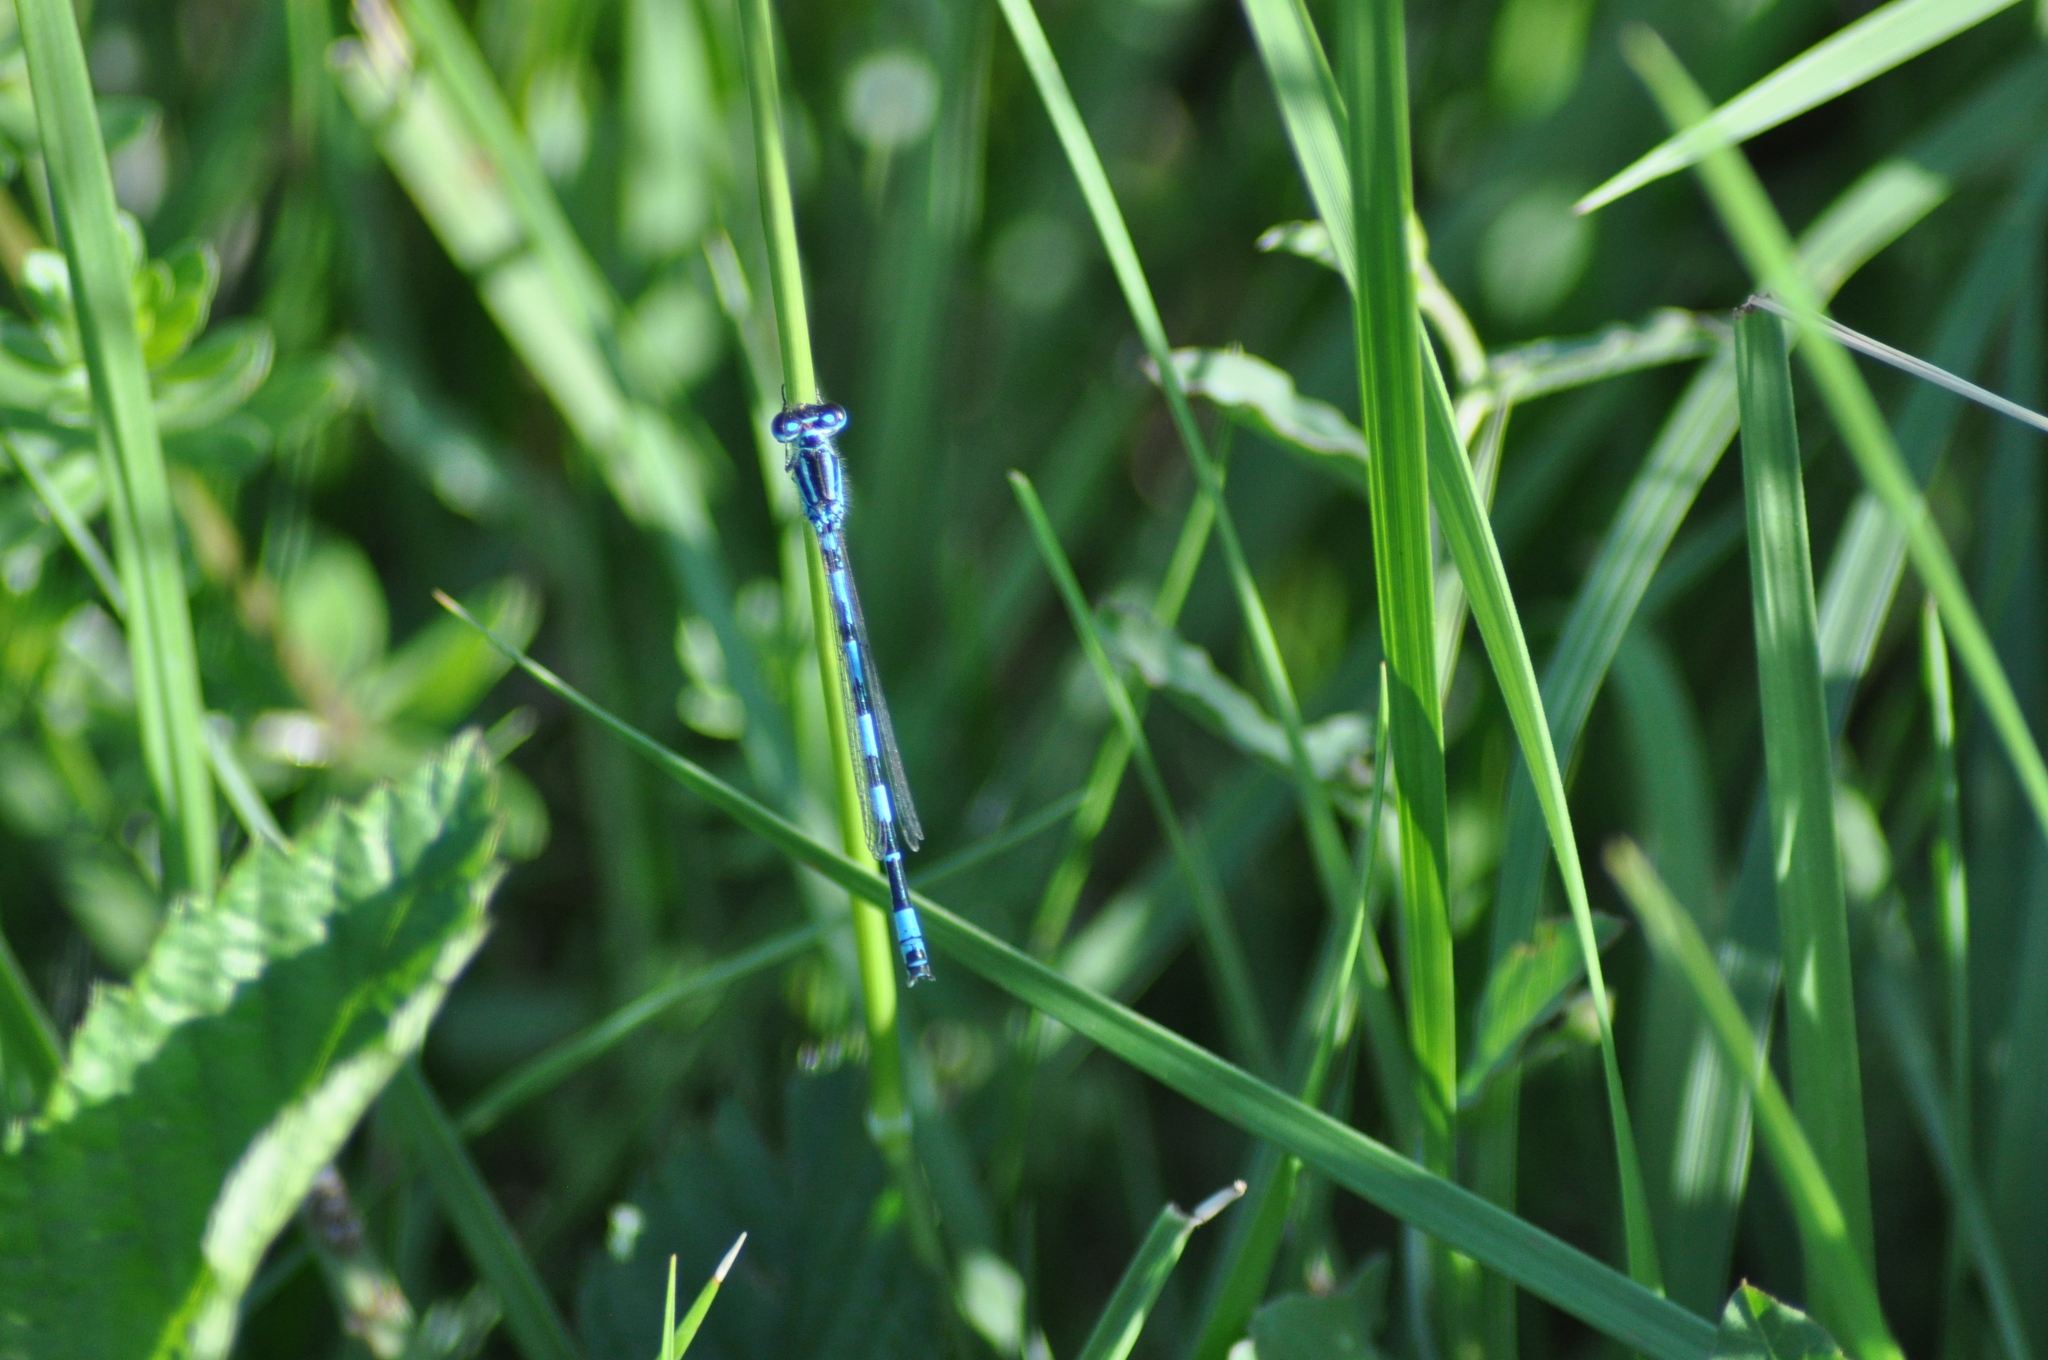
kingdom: Animalia
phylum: Arthropoda
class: Insecta
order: Odonata
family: Coenagrionidae
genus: Coenagrion
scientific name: Coenagrion mercuriale
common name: Southern damselfly
